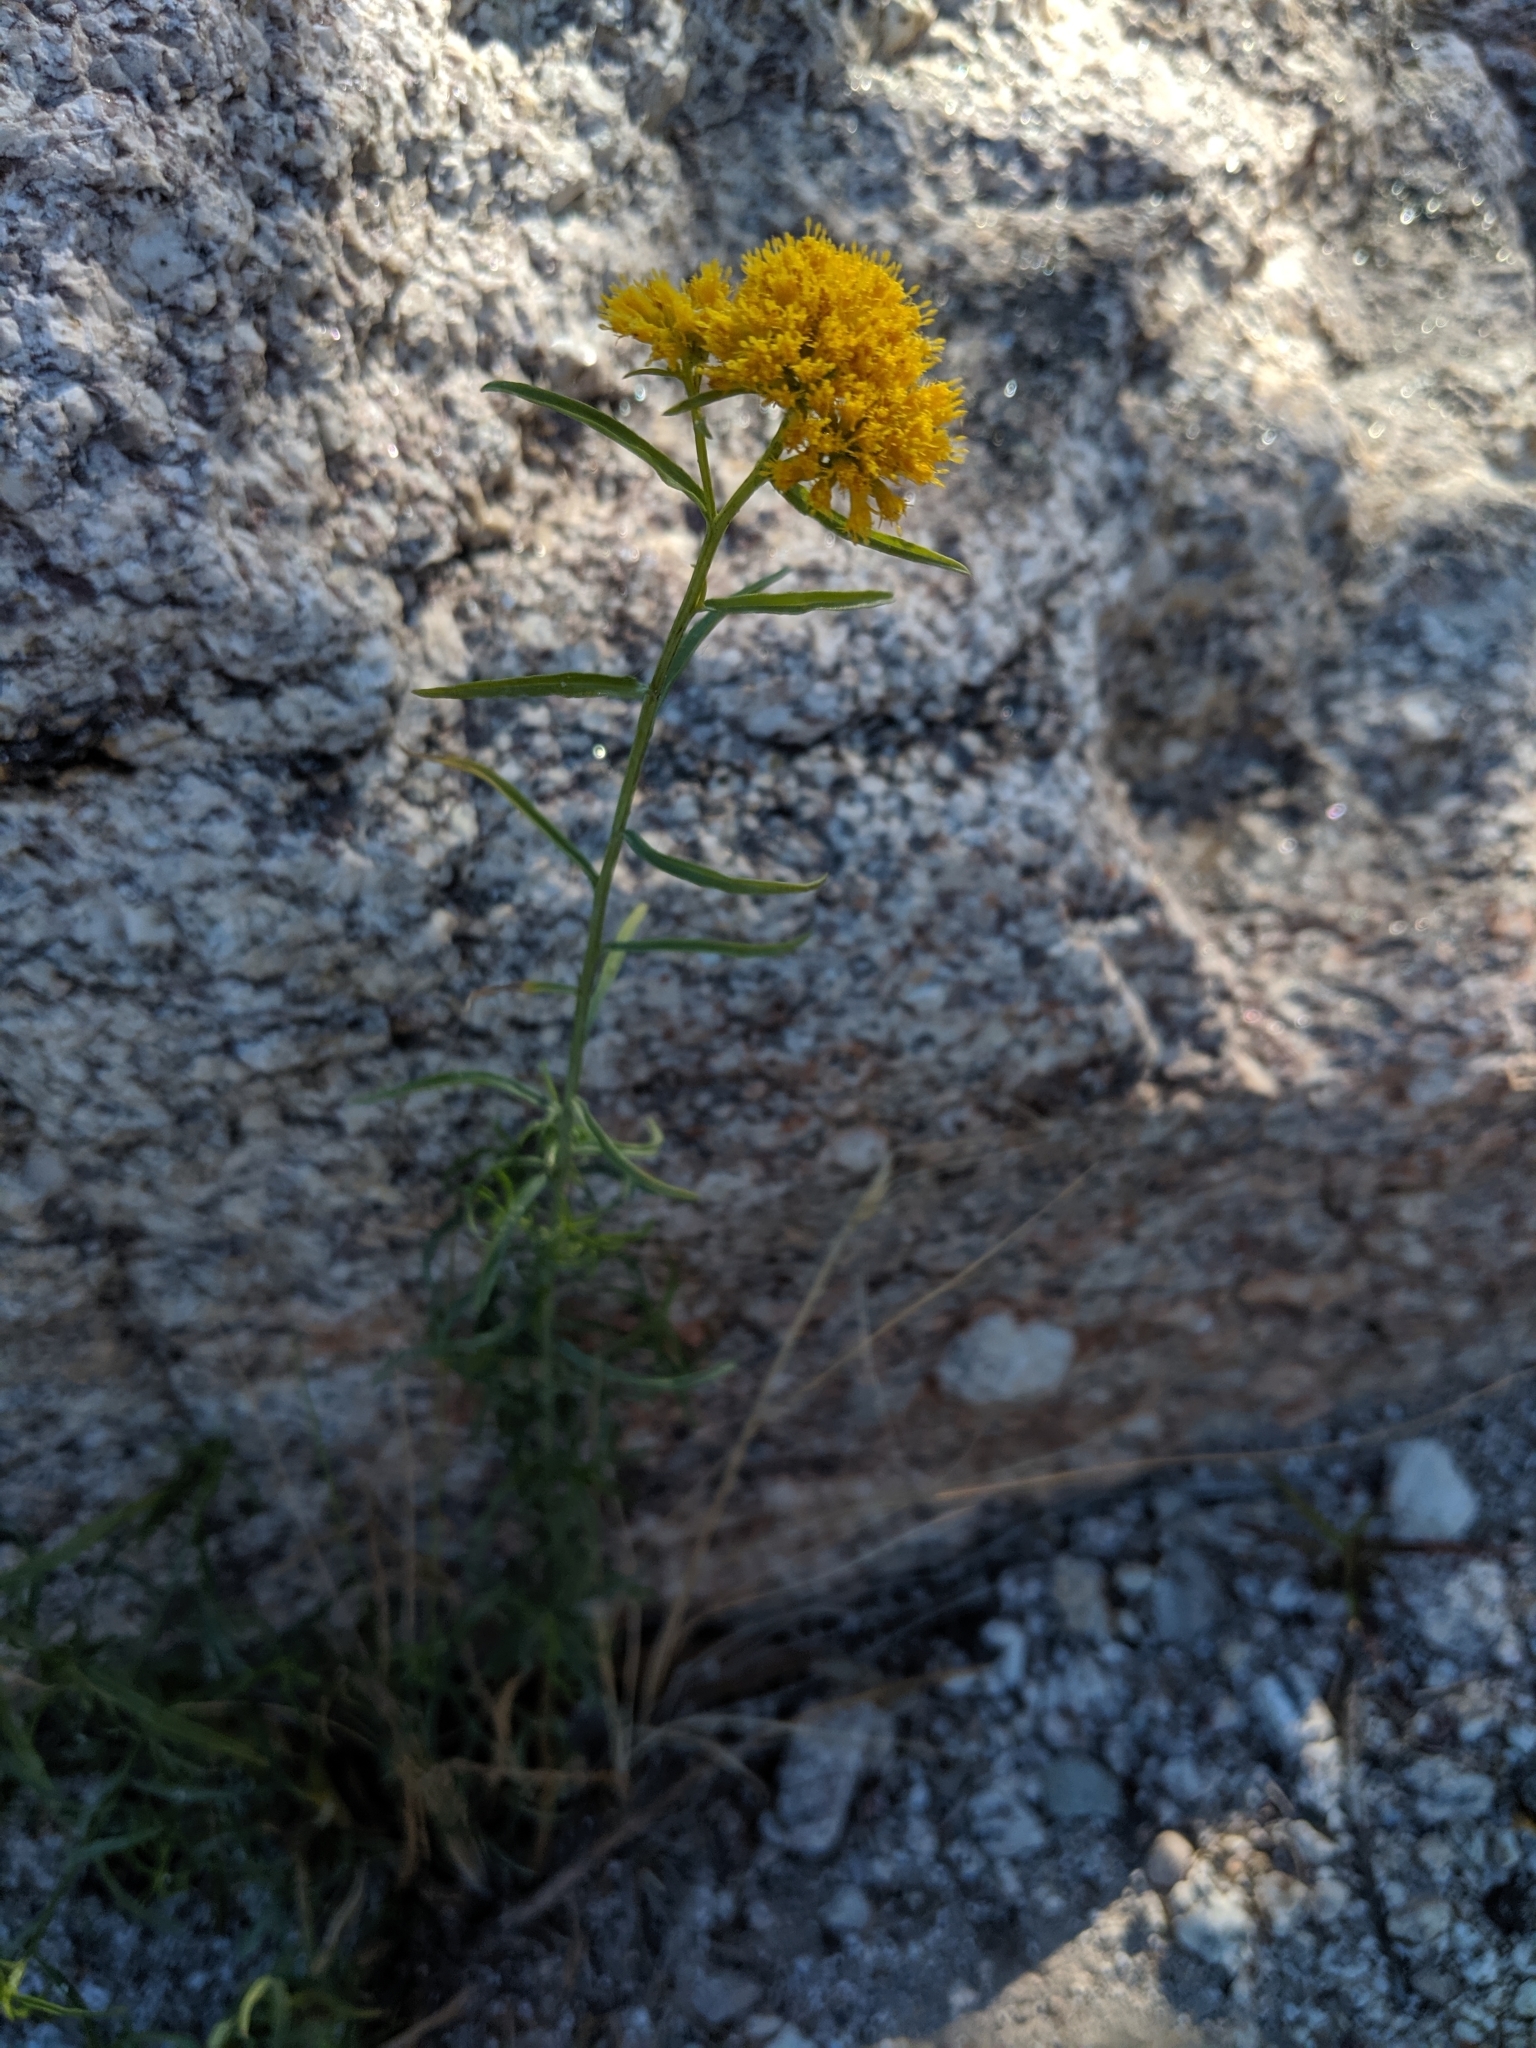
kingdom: Plantae
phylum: Tracheophyta
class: Magnoliopsida
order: Asterales
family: Asteraceae
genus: Gymnosperma
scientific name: Gymnosperma glutinosum
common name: Gumhead
